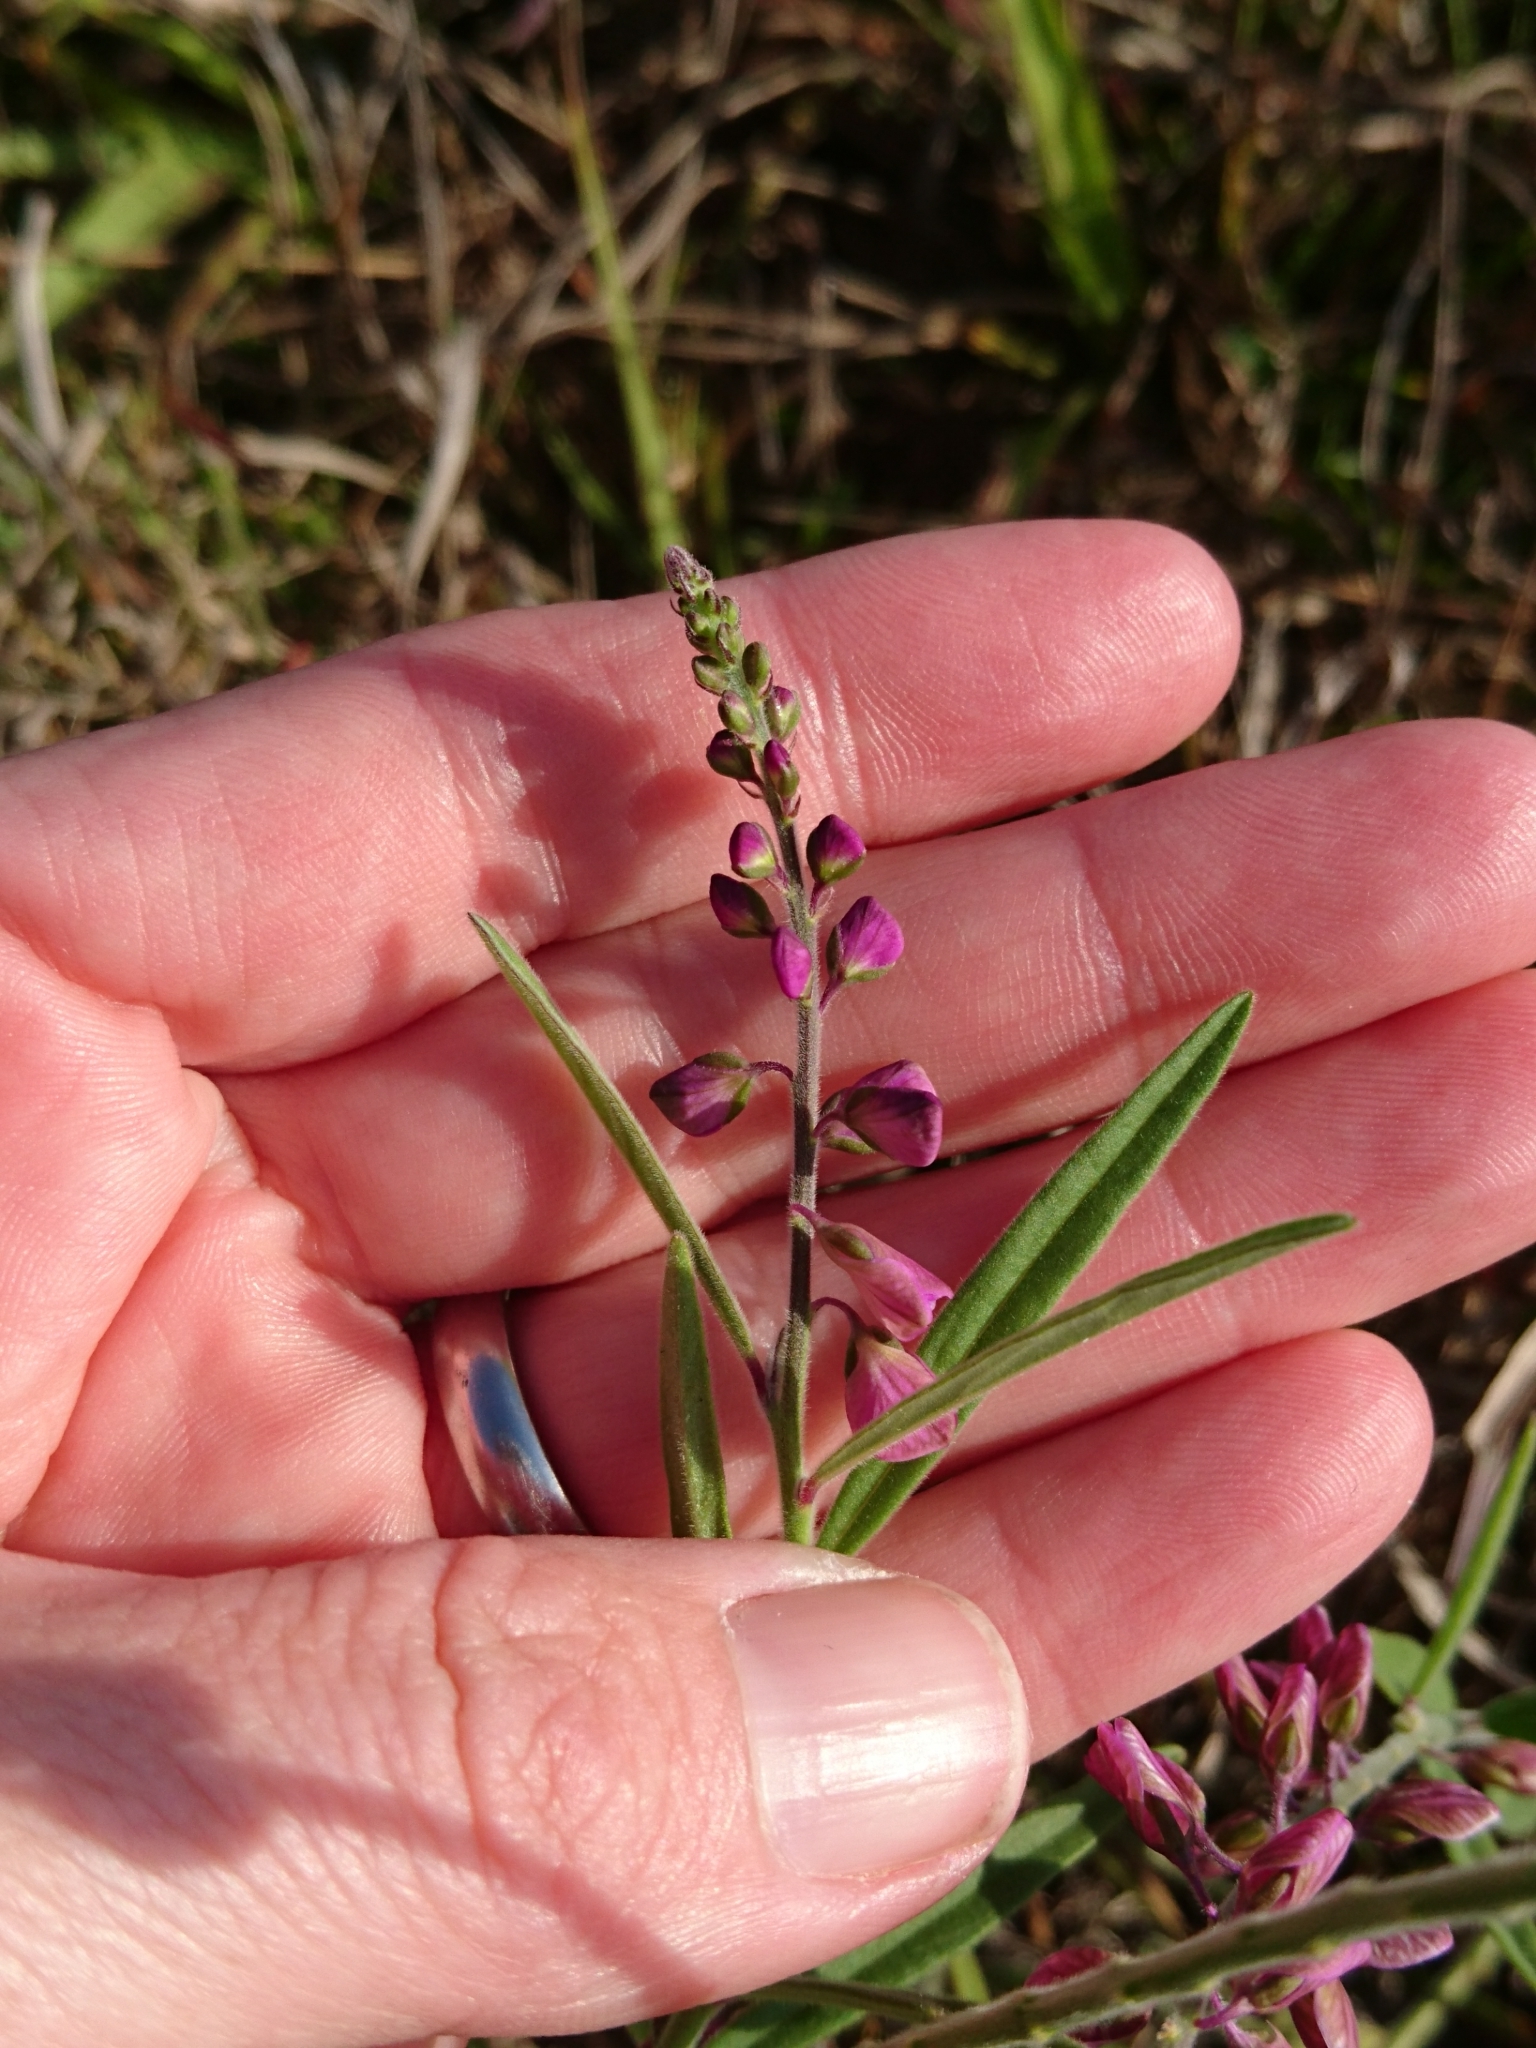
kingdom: Plantae
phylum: Tracheophyta
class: Magnoliopsida
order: Fabales
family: Polygalaceae
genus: Asemeia
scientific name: Asemeia grandiflora
